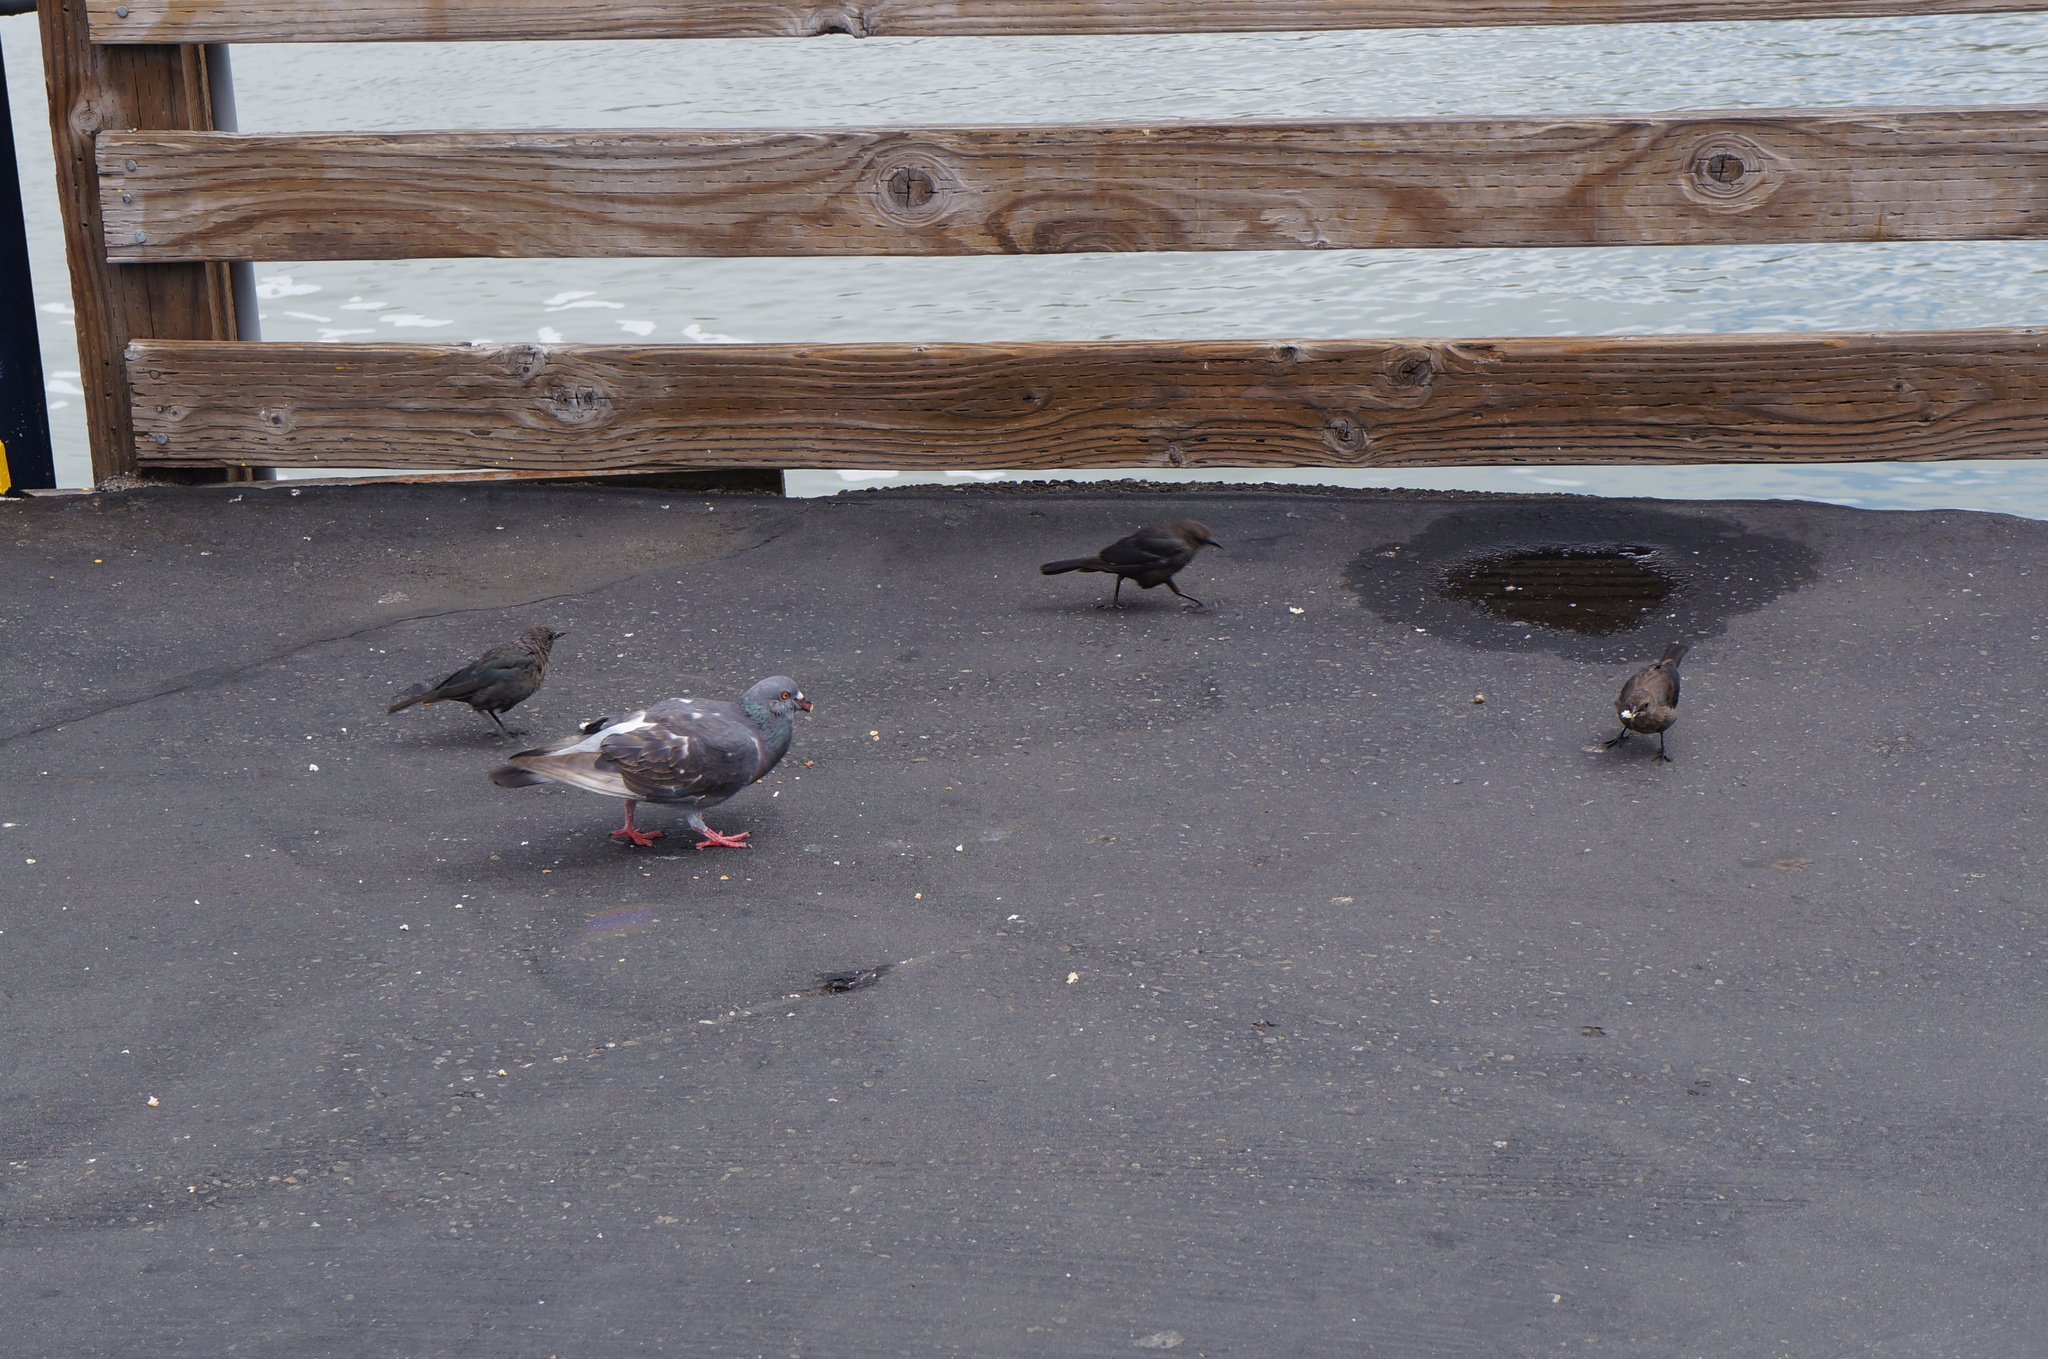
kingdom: Animalia
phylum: Chordata
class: Aves
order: Columbiformes
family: Columbidae
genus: Columba
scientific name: Columba livia
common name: Rock pigeon
